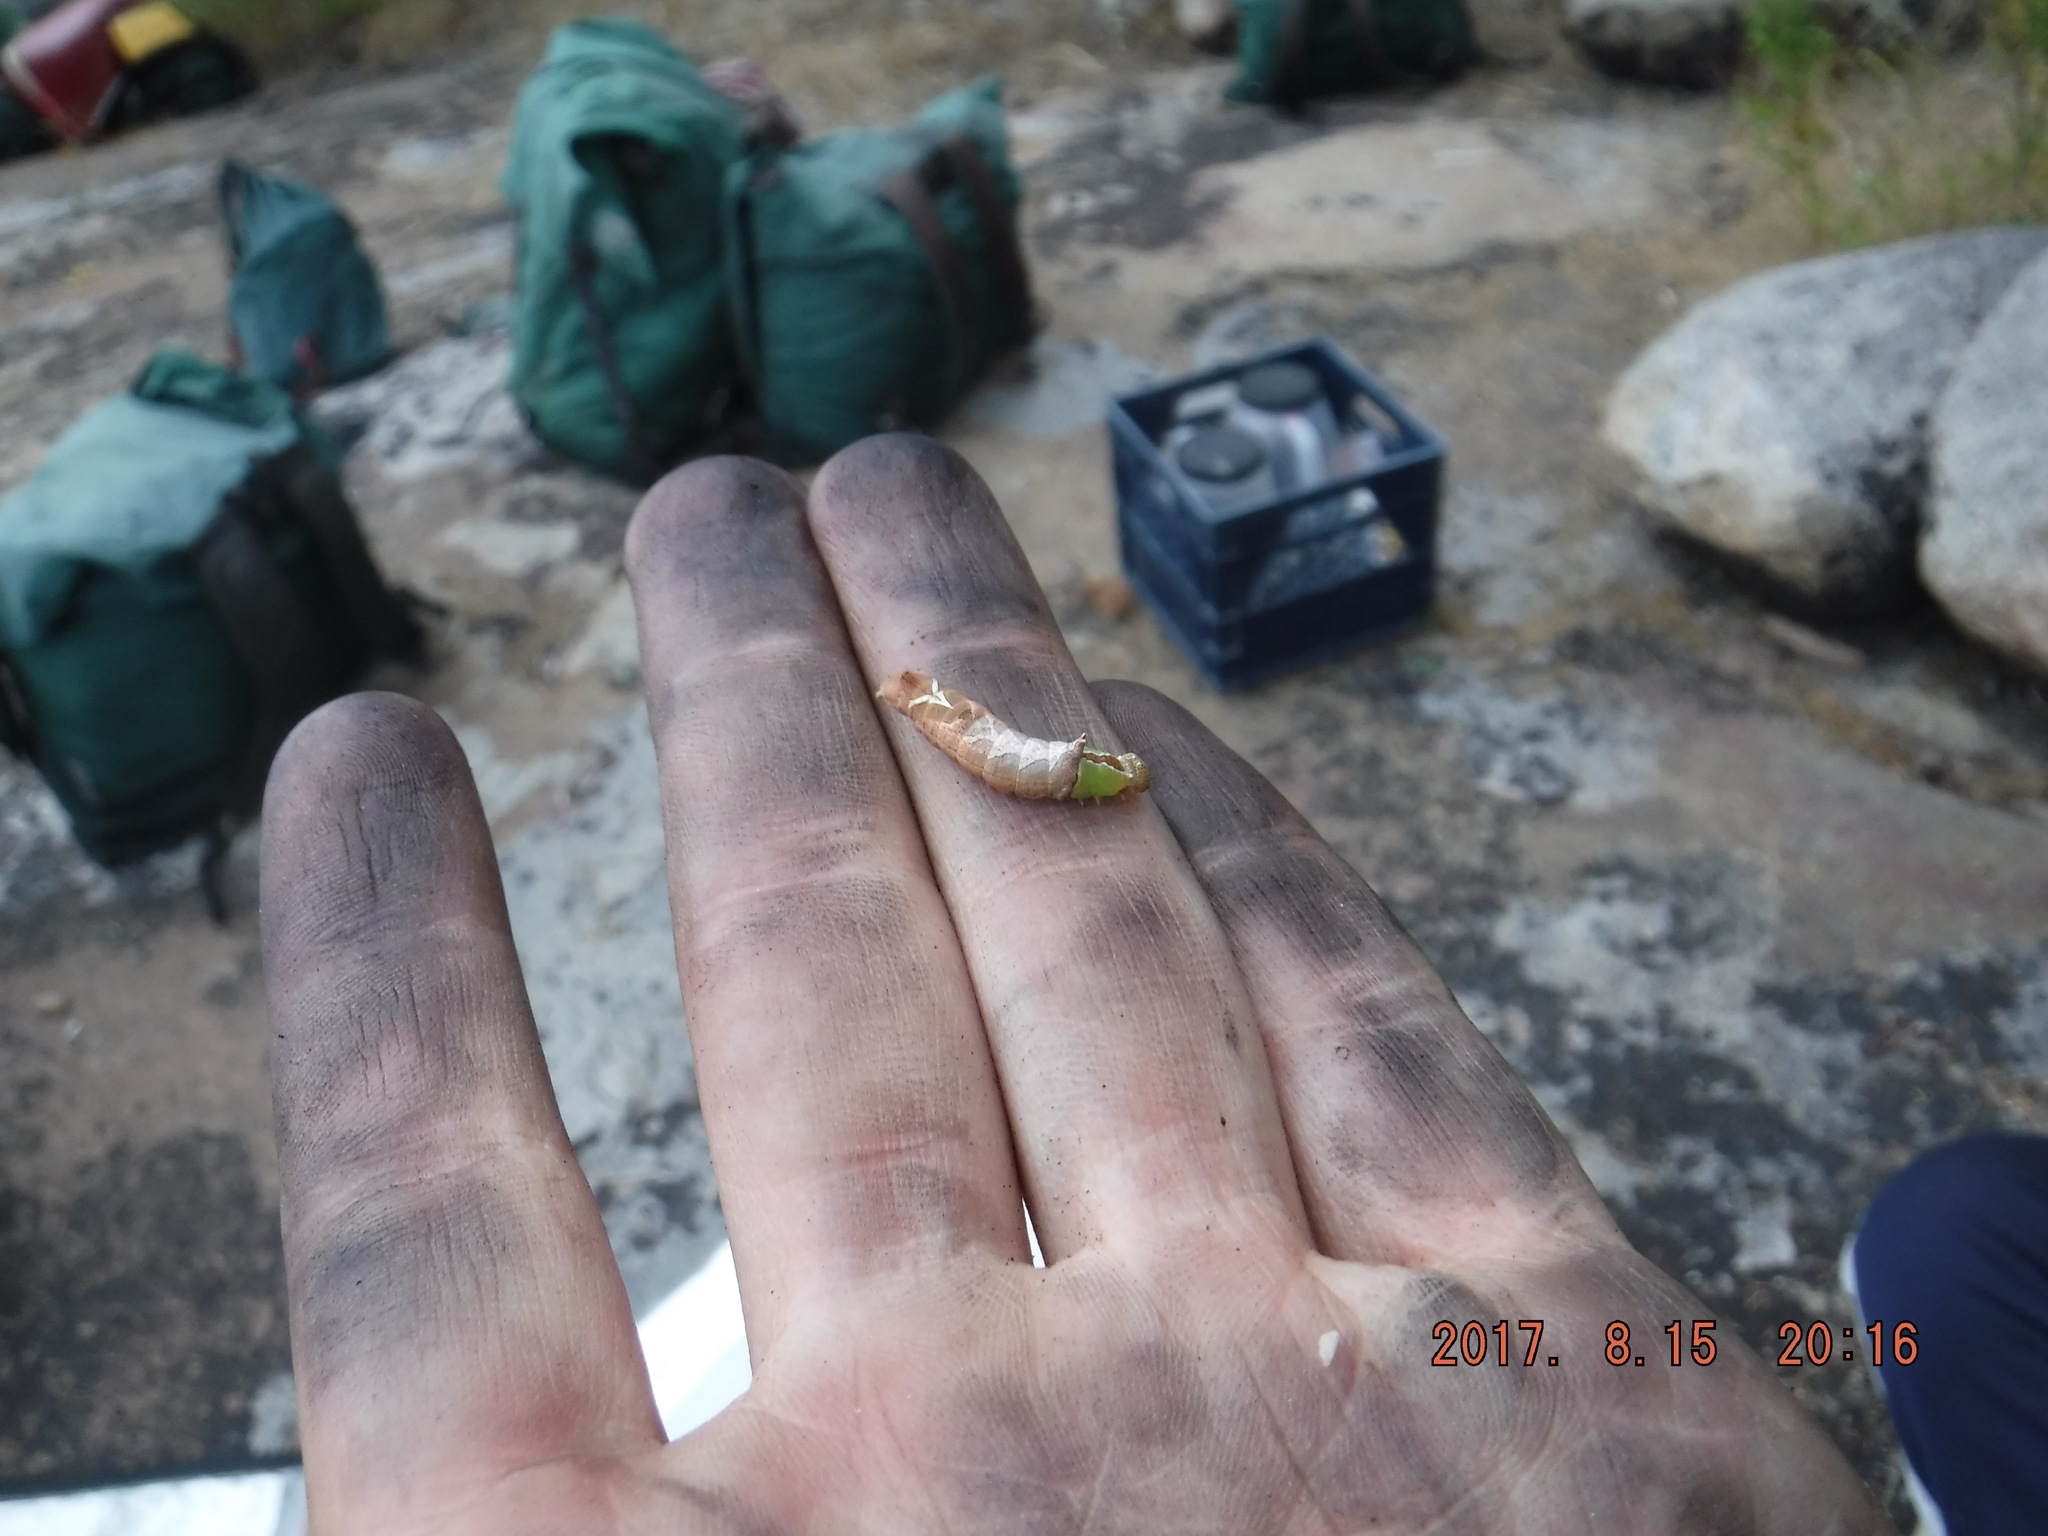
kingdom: Animalia
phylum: Arthropoda
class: Insecta
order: Lepidoptera
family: Notodontidae
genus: Schizura
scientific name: Schizura
